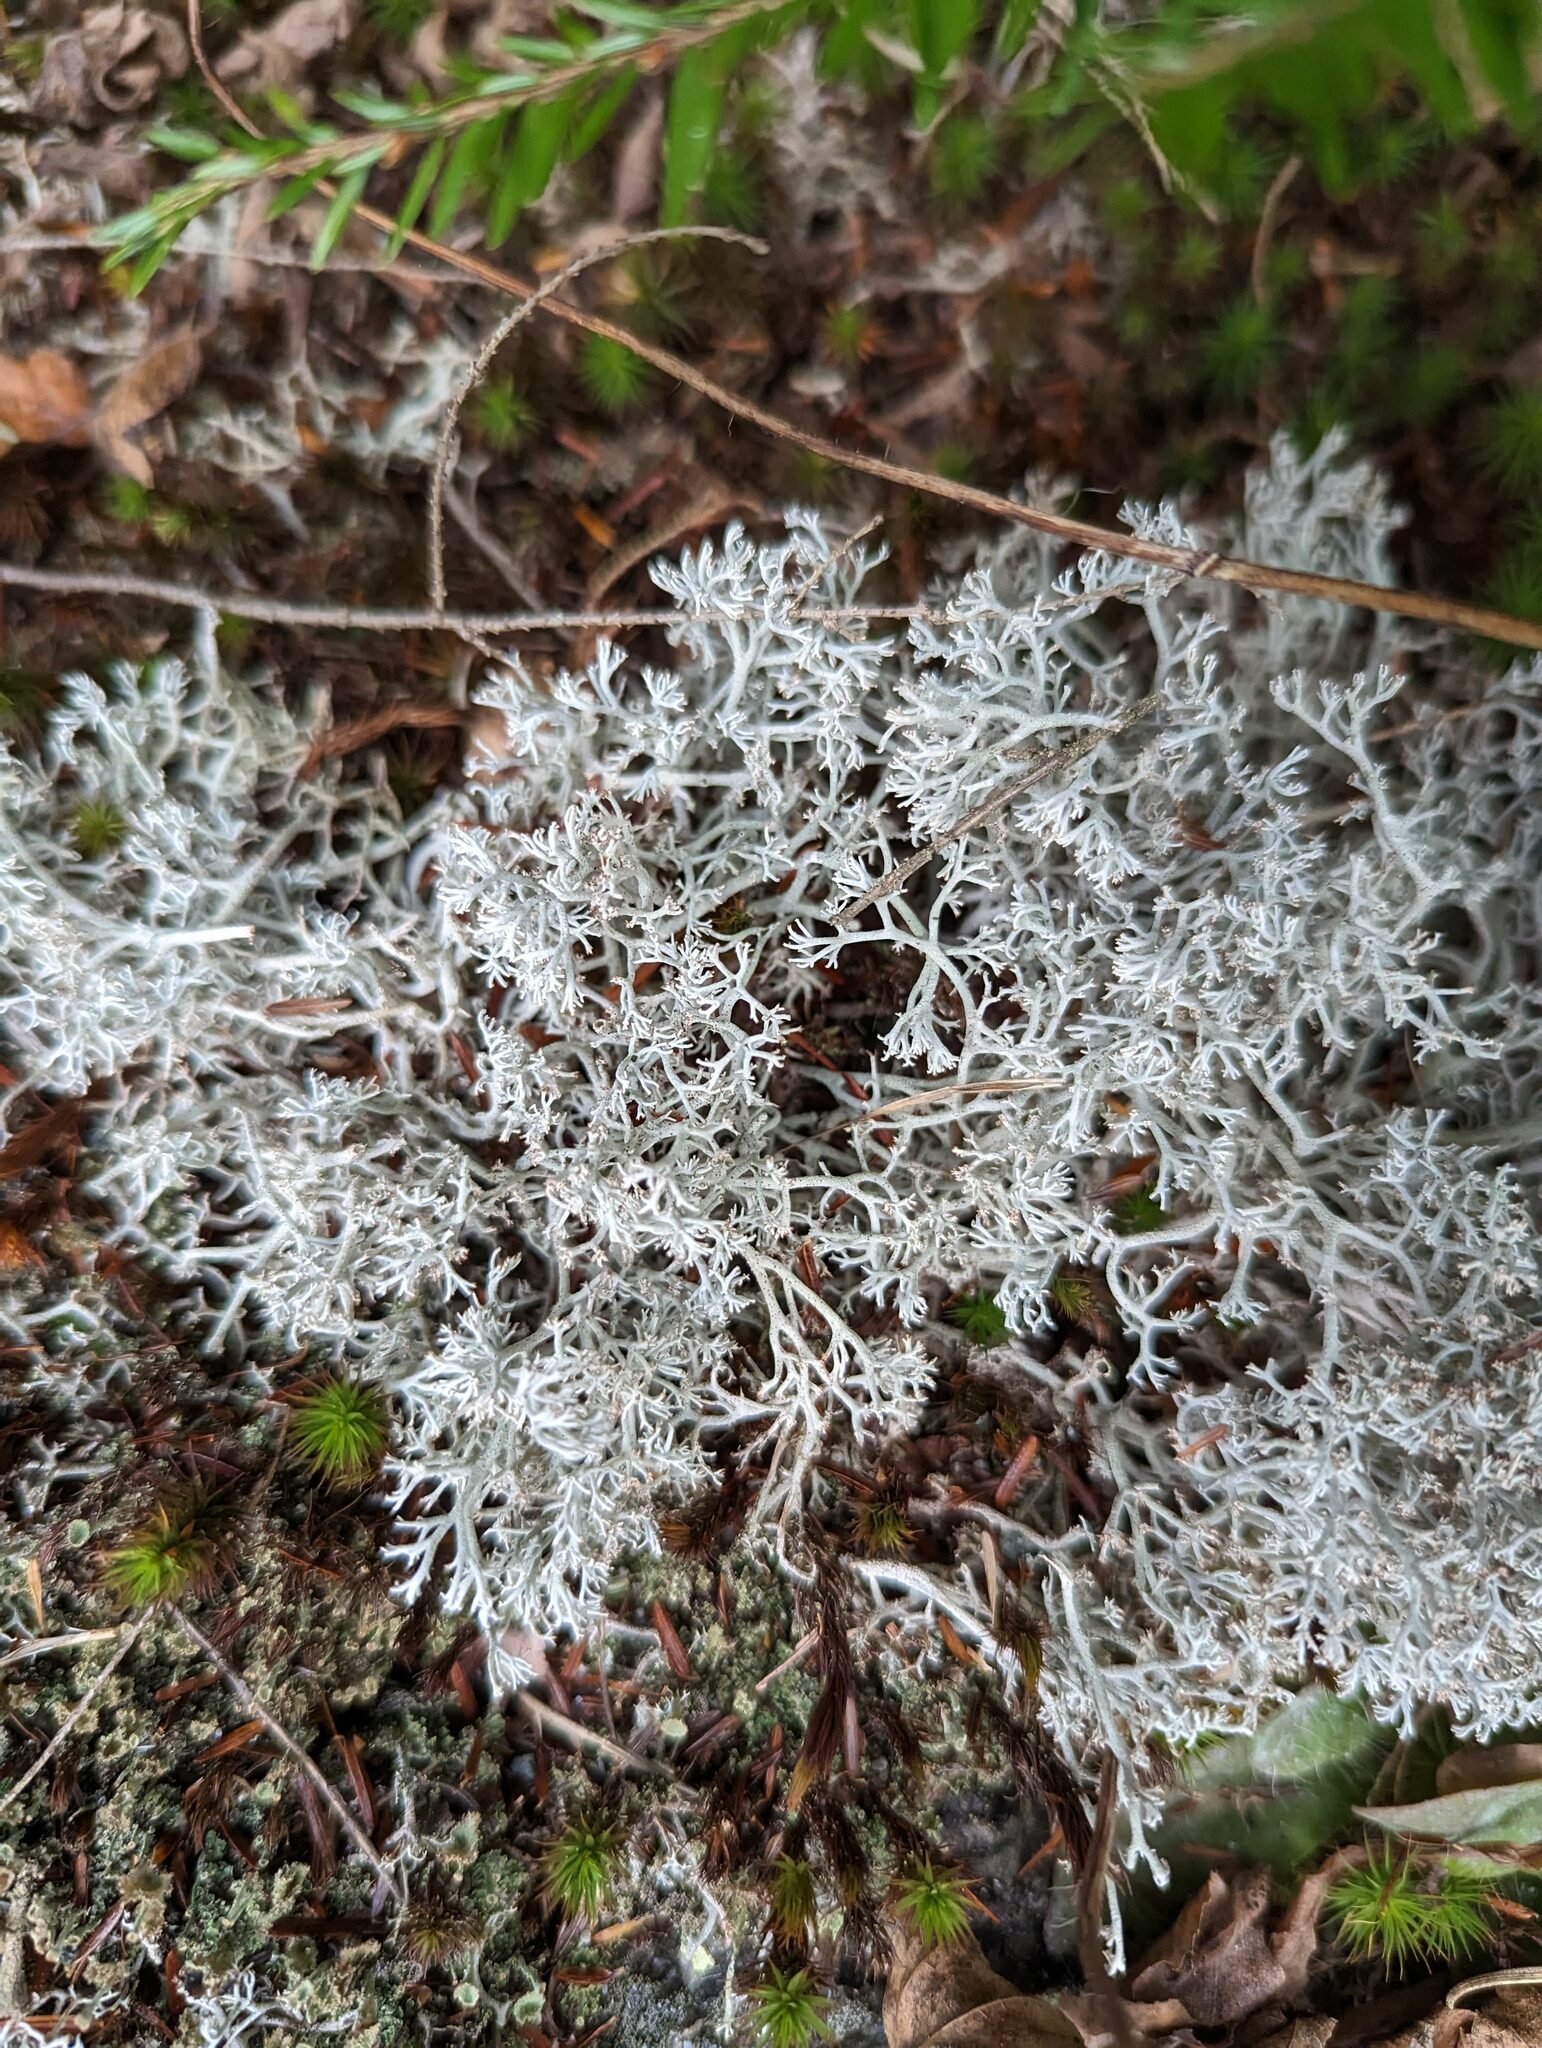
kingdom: Fungi
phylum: Ascomycota
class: Lecanoromycetes
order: Lecanorales
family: Cladoniaceae
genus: Cladonia
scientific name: Cladonia rangiferina
